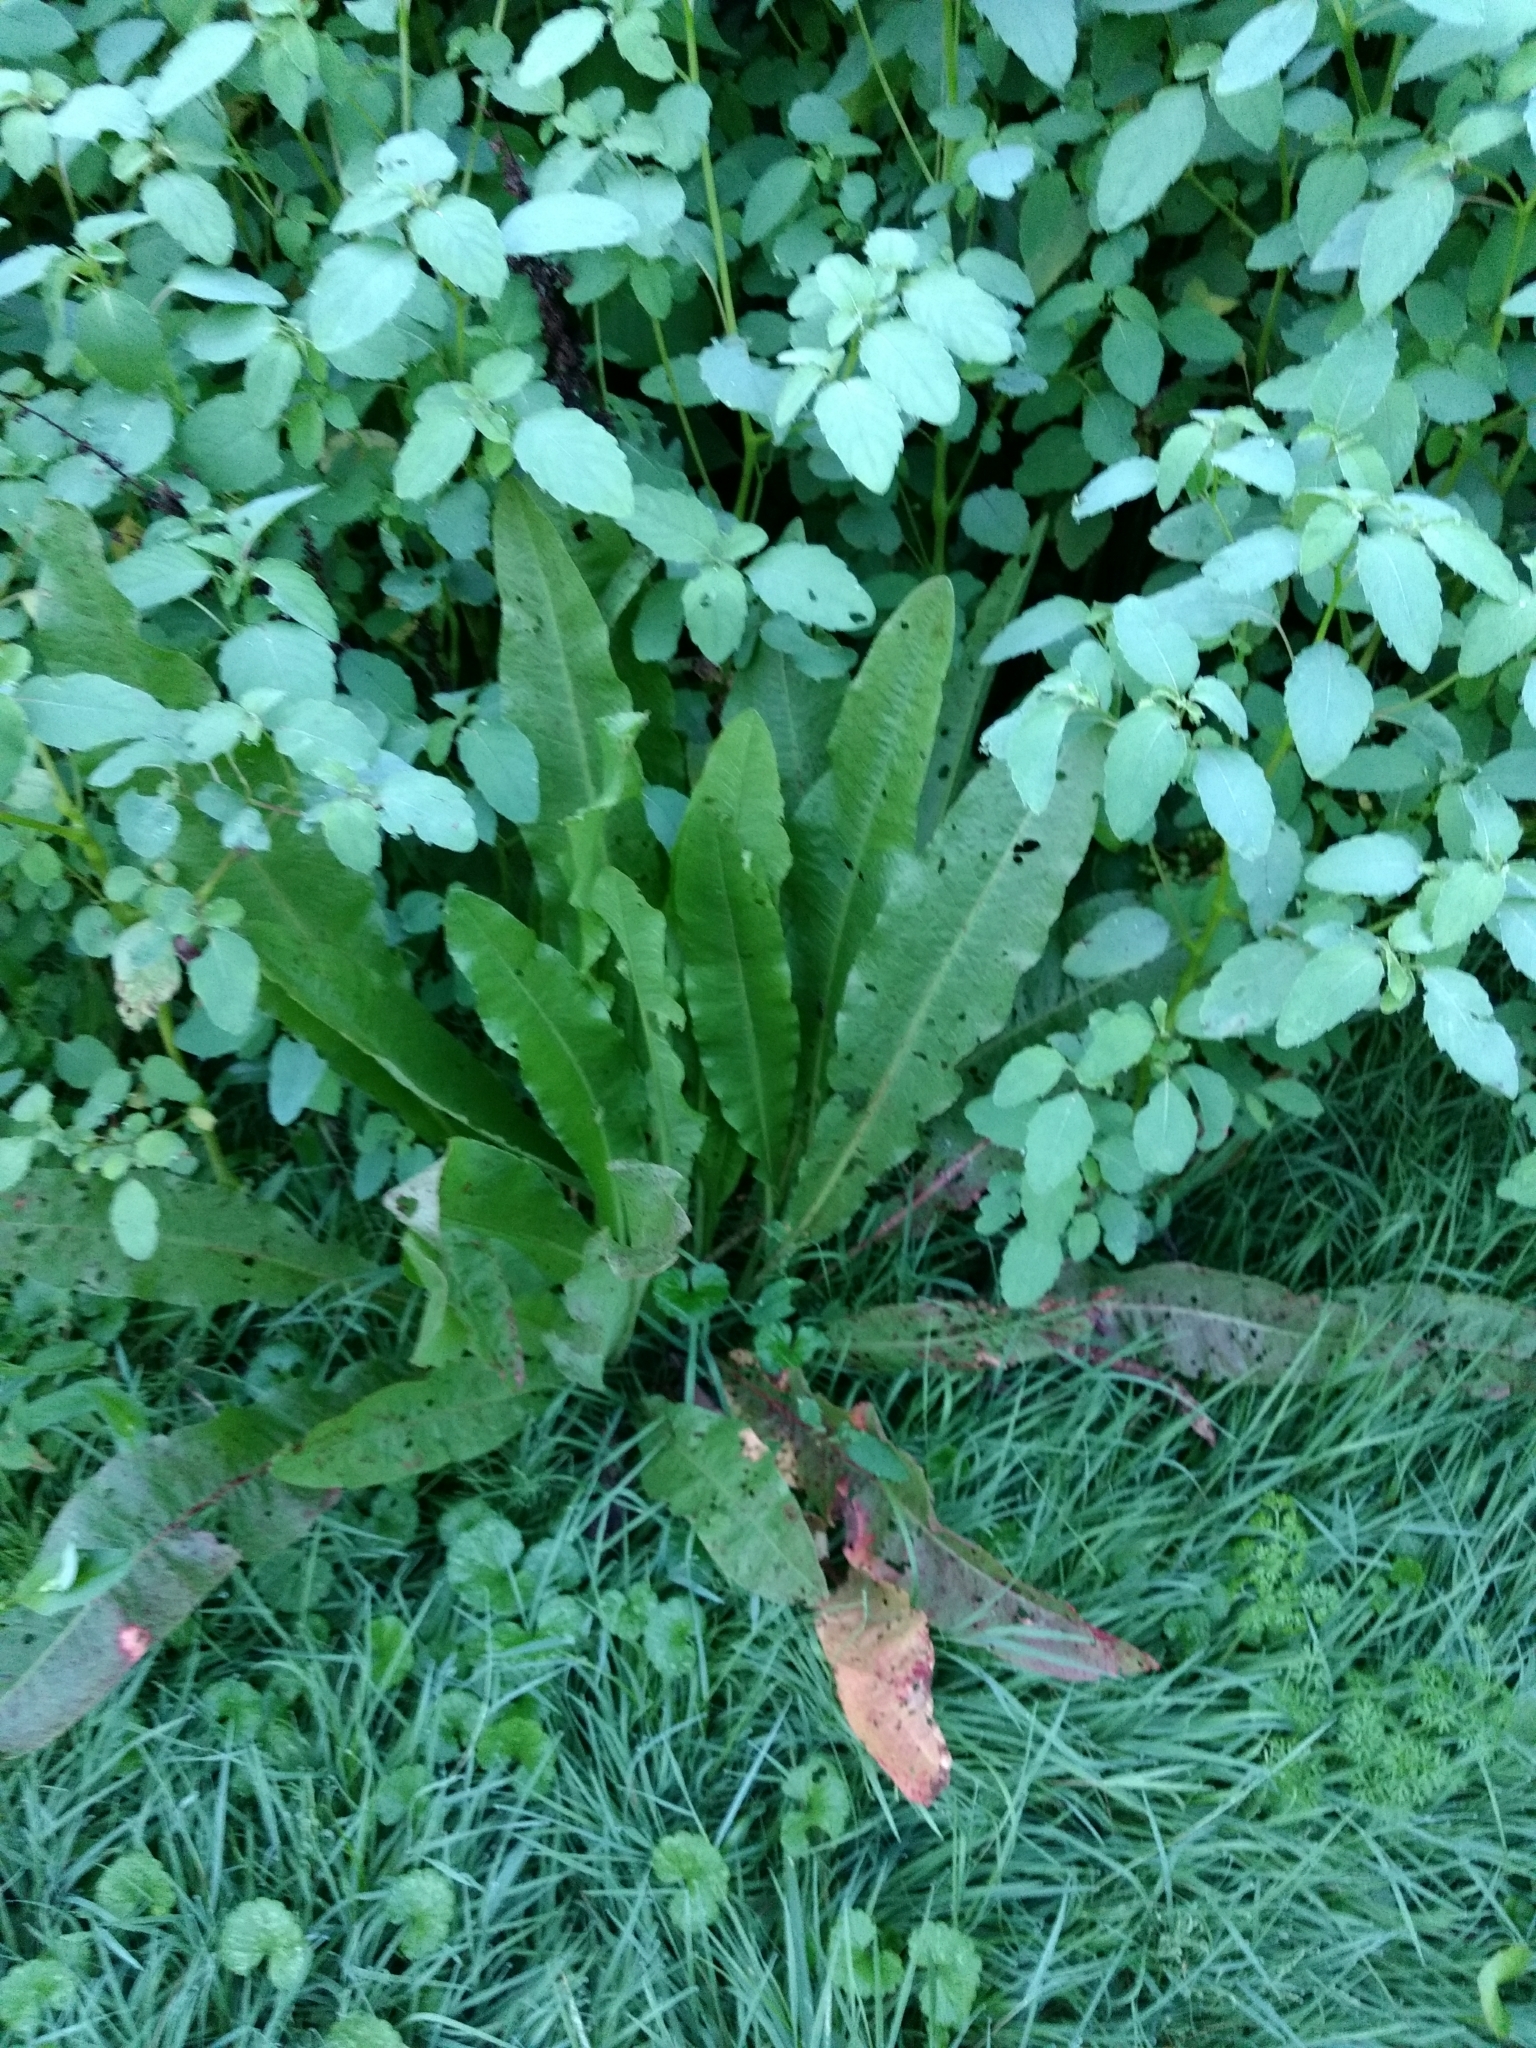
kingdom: Plantae
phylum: Tracheophyta
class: Magnoliopsida
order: Caryophyllales
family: Polygonaceae
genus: Rumex
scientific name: Rumex crispus
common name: Curled dock
